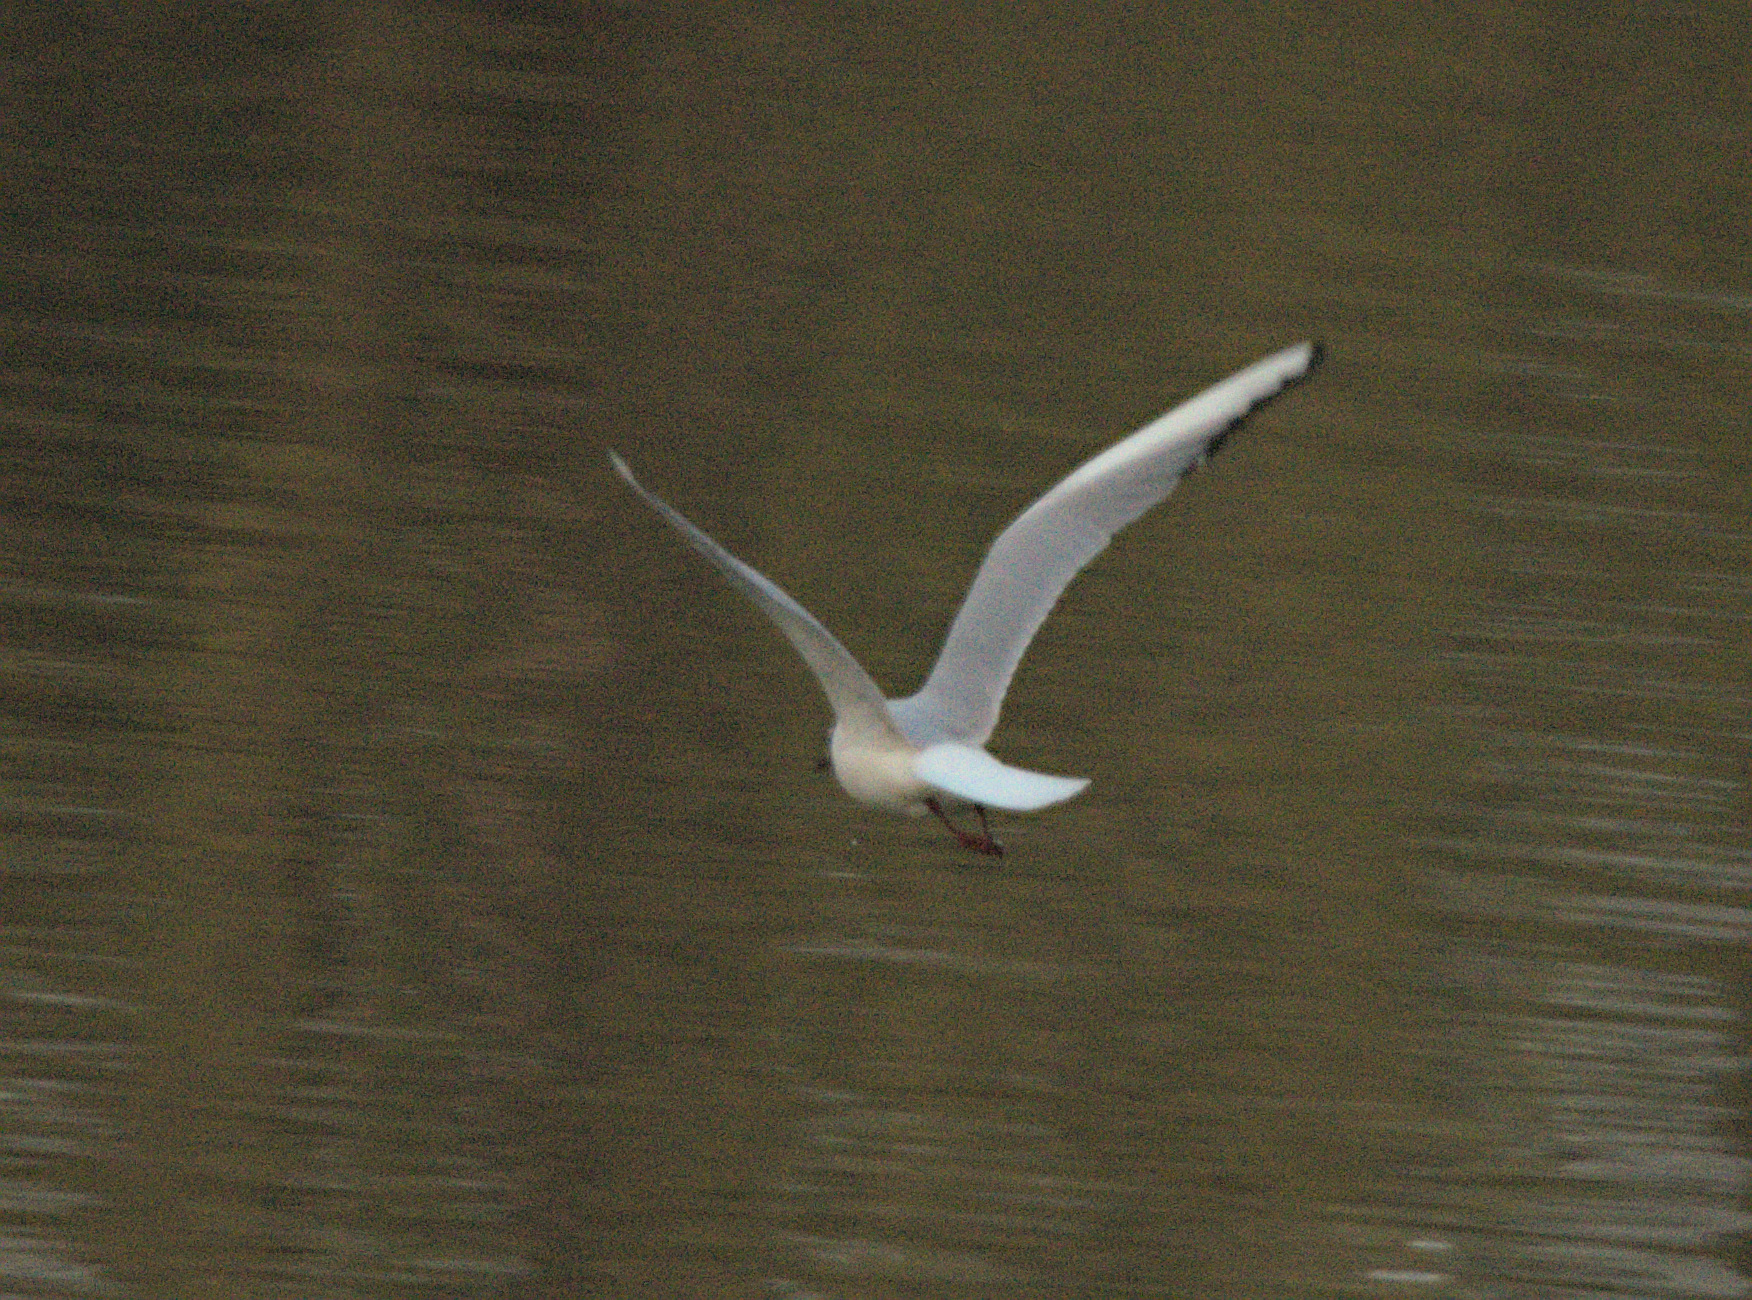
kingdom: Animalia
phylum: Chordata
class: Aves
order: Charadriiformes
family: Laridae
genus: Chroicocephalus
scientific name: Chroicocephalus ridibundus
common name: Black-headed gull
